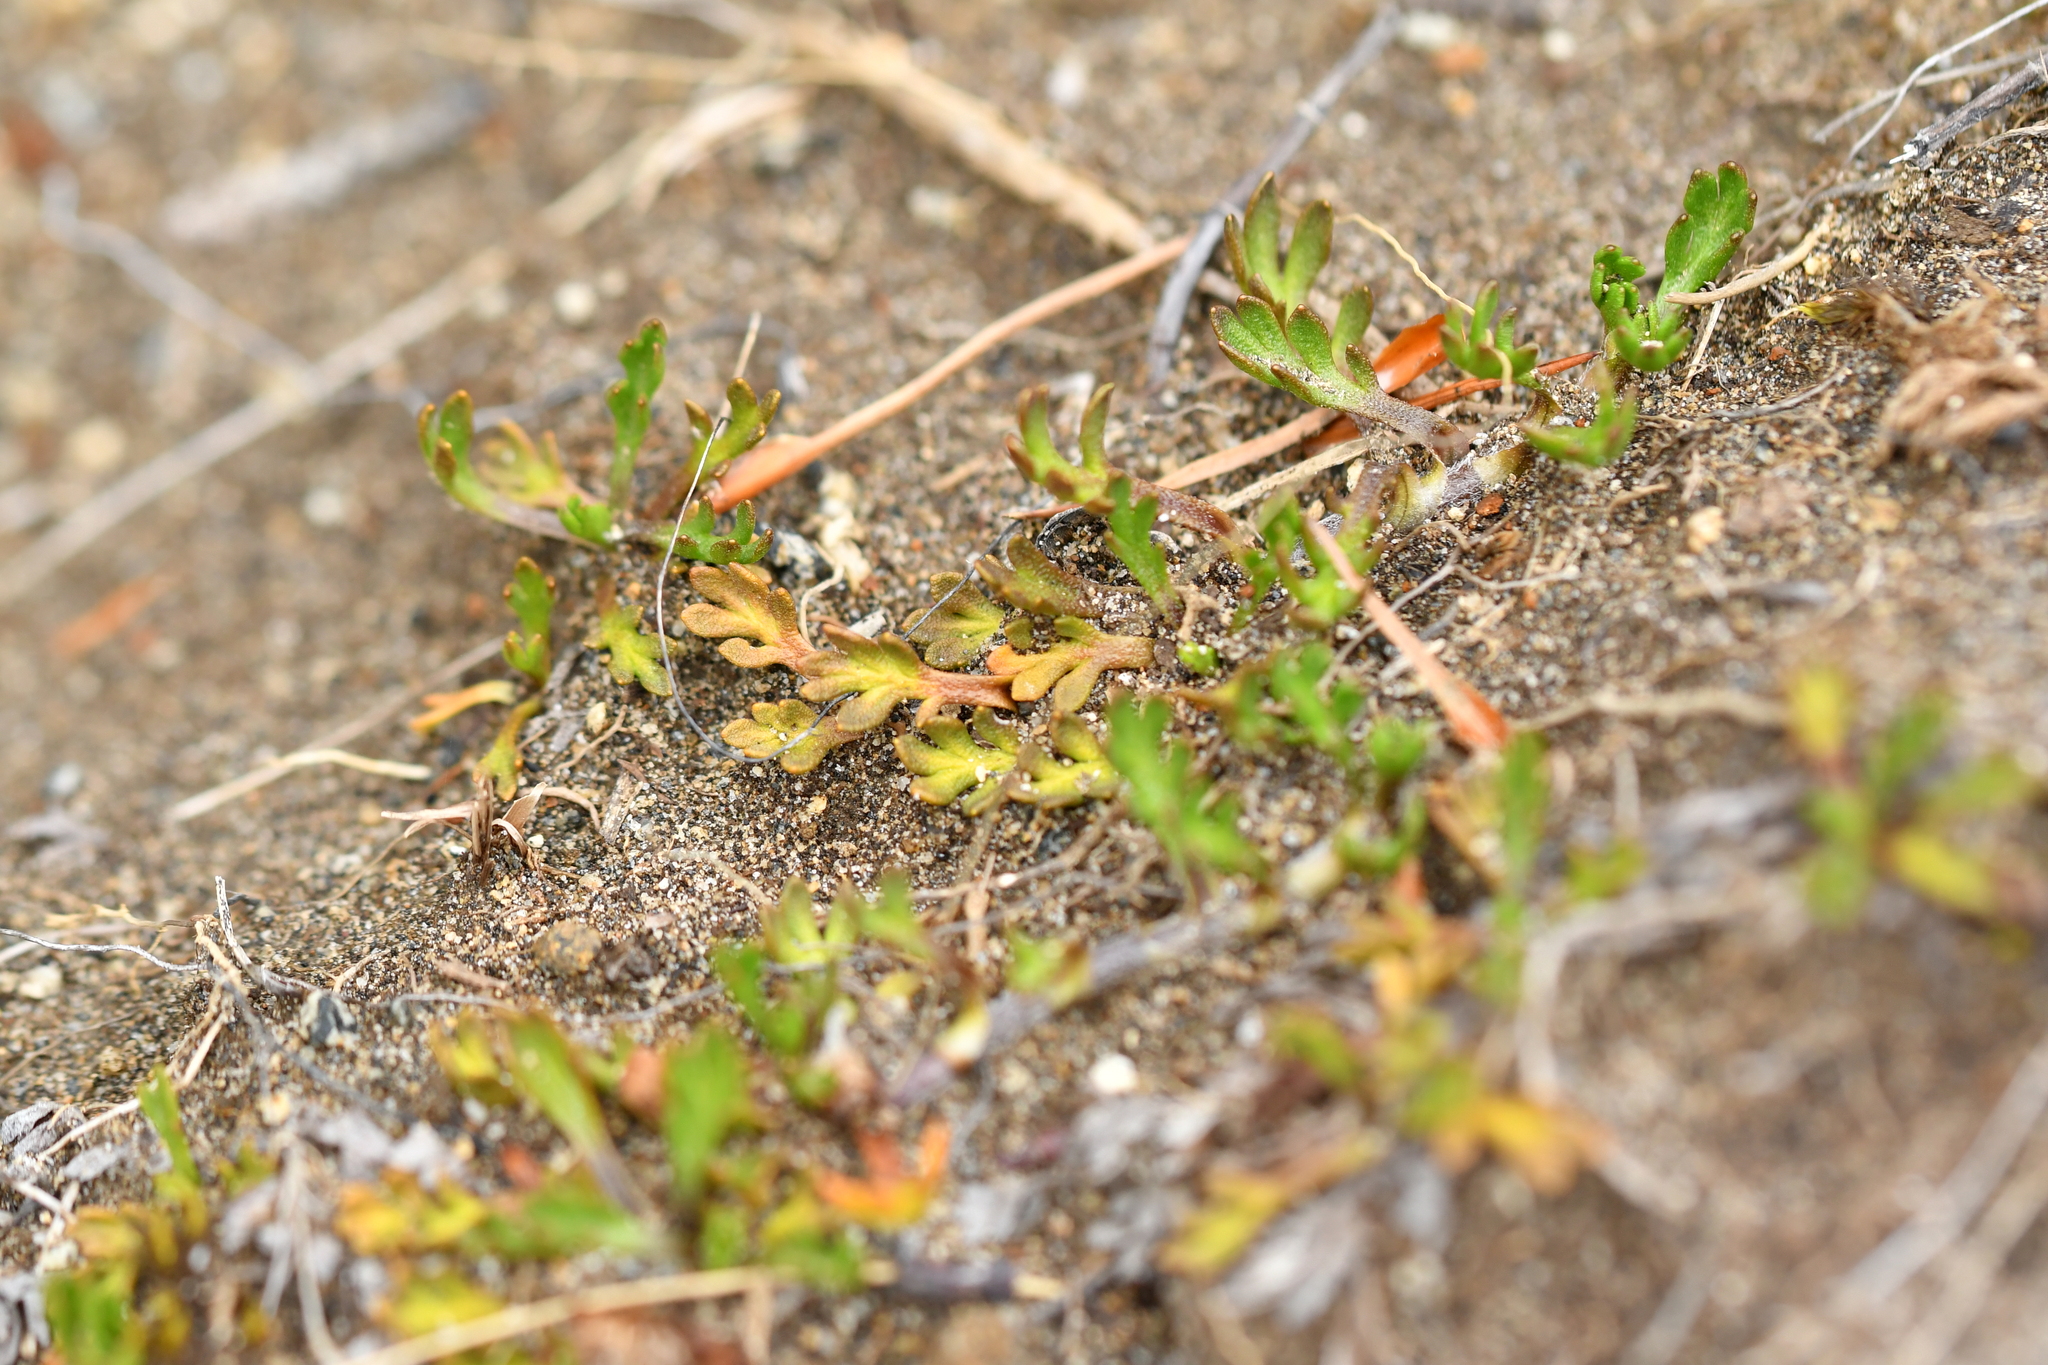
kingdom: Plantae
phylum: Tracheophyta
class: Magnoliopsida
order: Asterales
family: Asteraceae
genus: Leptinella
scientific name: Leptinella pectinata
